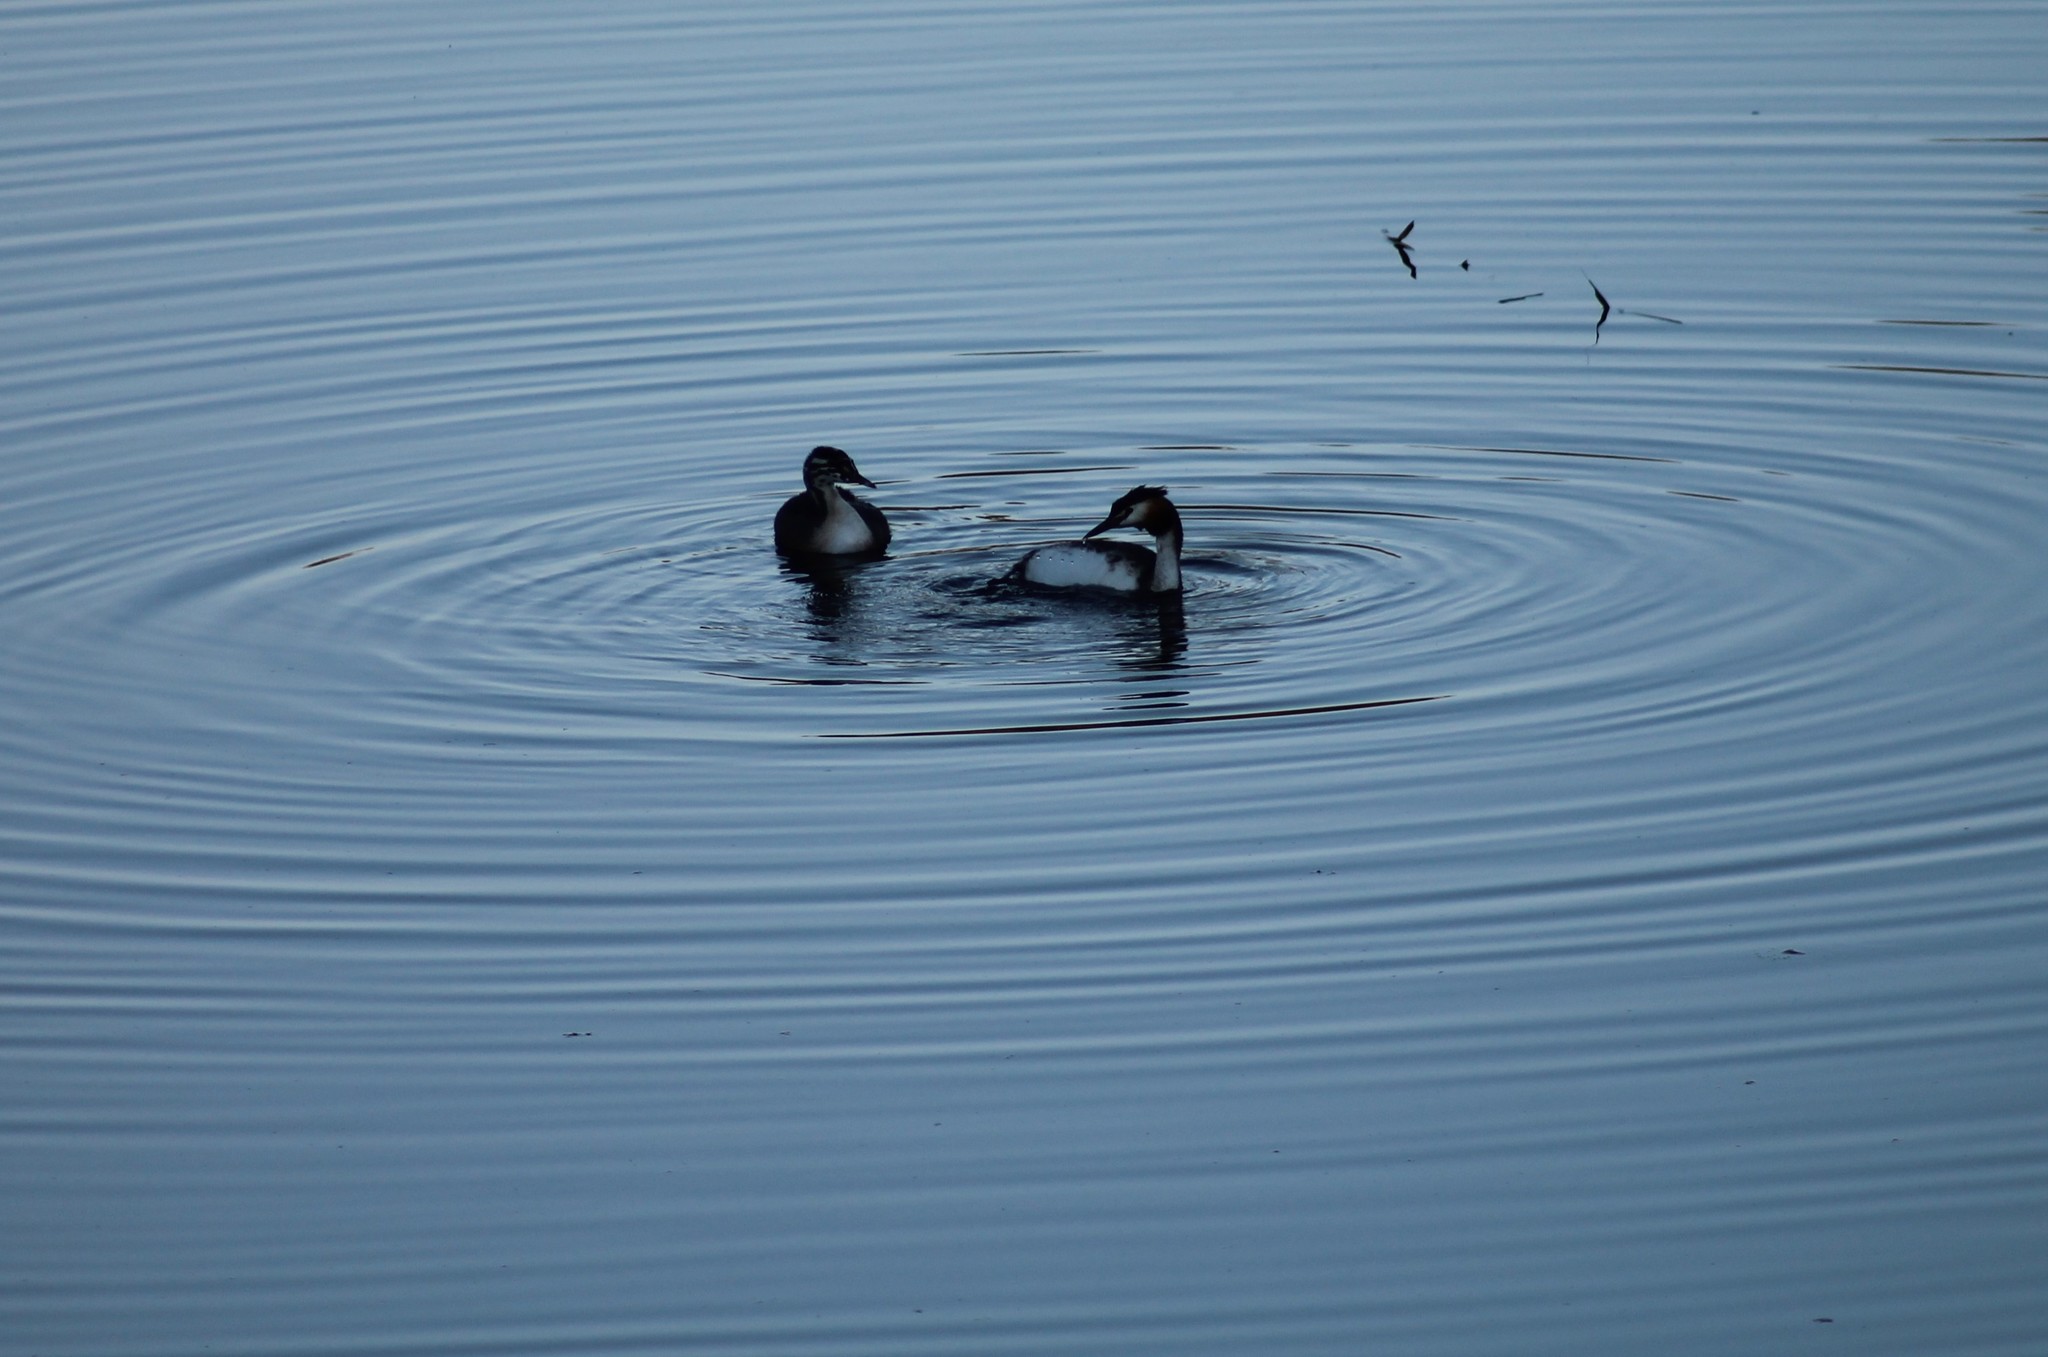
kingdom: Animalia
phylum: Chordata
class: Aves
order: Podicipediformes
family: Podicipedidae
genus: Podiceps
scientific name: Podiceps cristatus
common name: Great crested grebe
